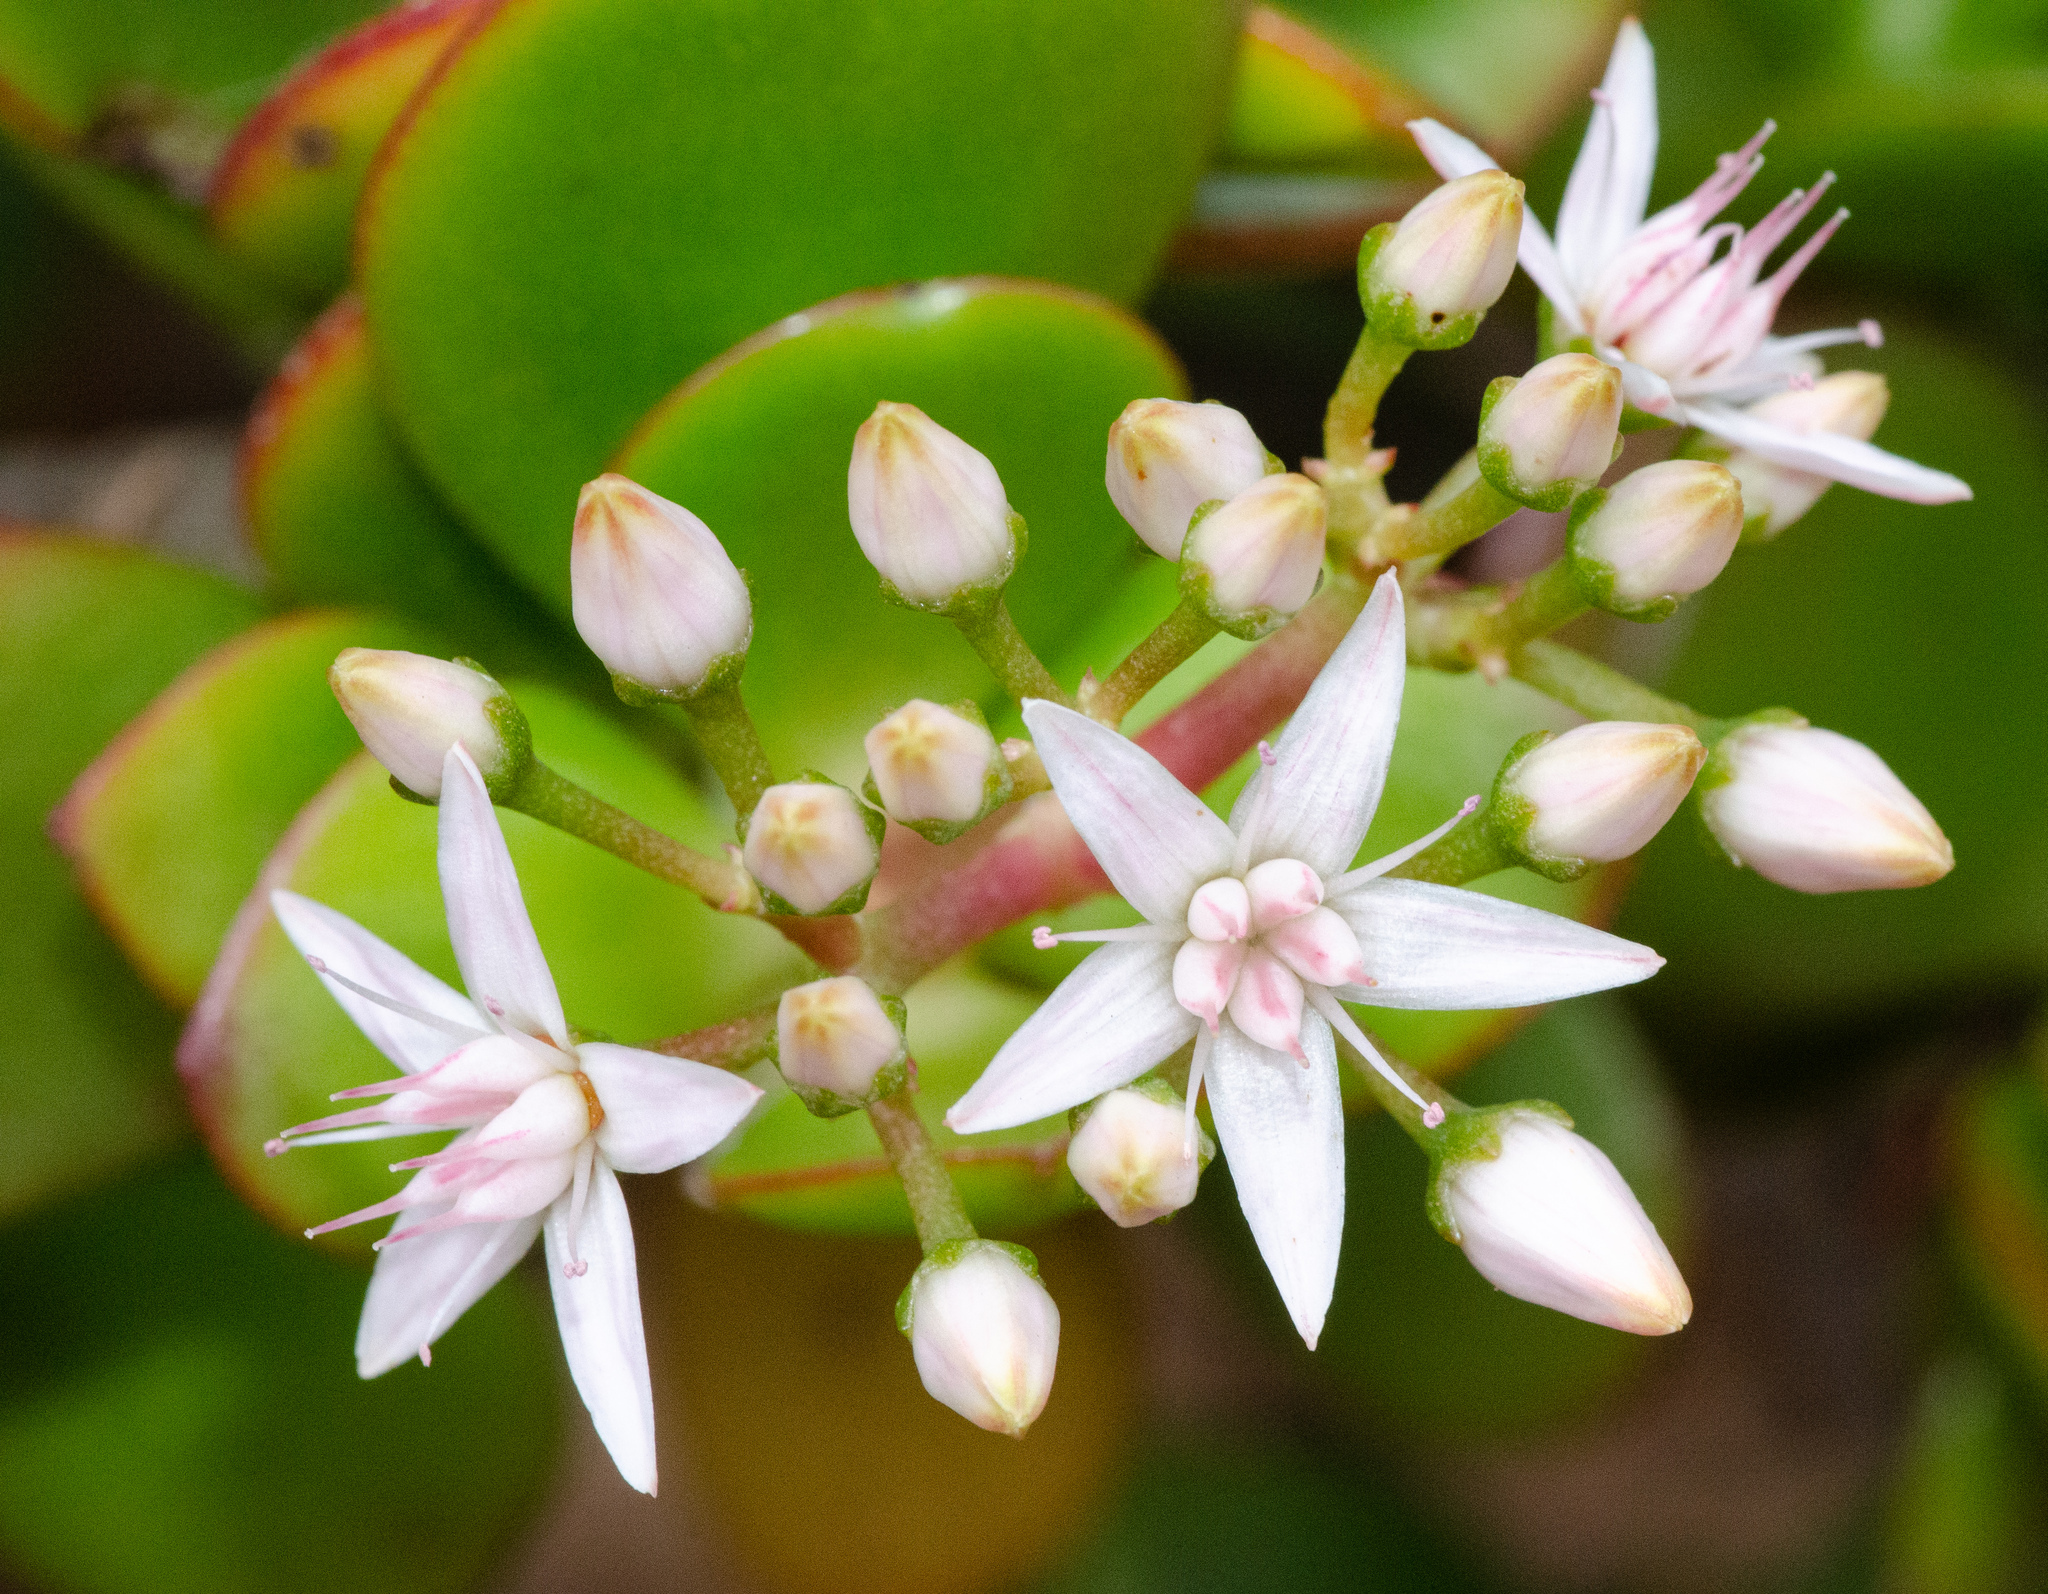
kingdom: Plantae
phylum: Tracheophyta
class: Magnoliopsida
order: Saxifragales
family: Crassulaceae
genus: Crassula
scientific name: Crassula ovata
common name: Jade plant
